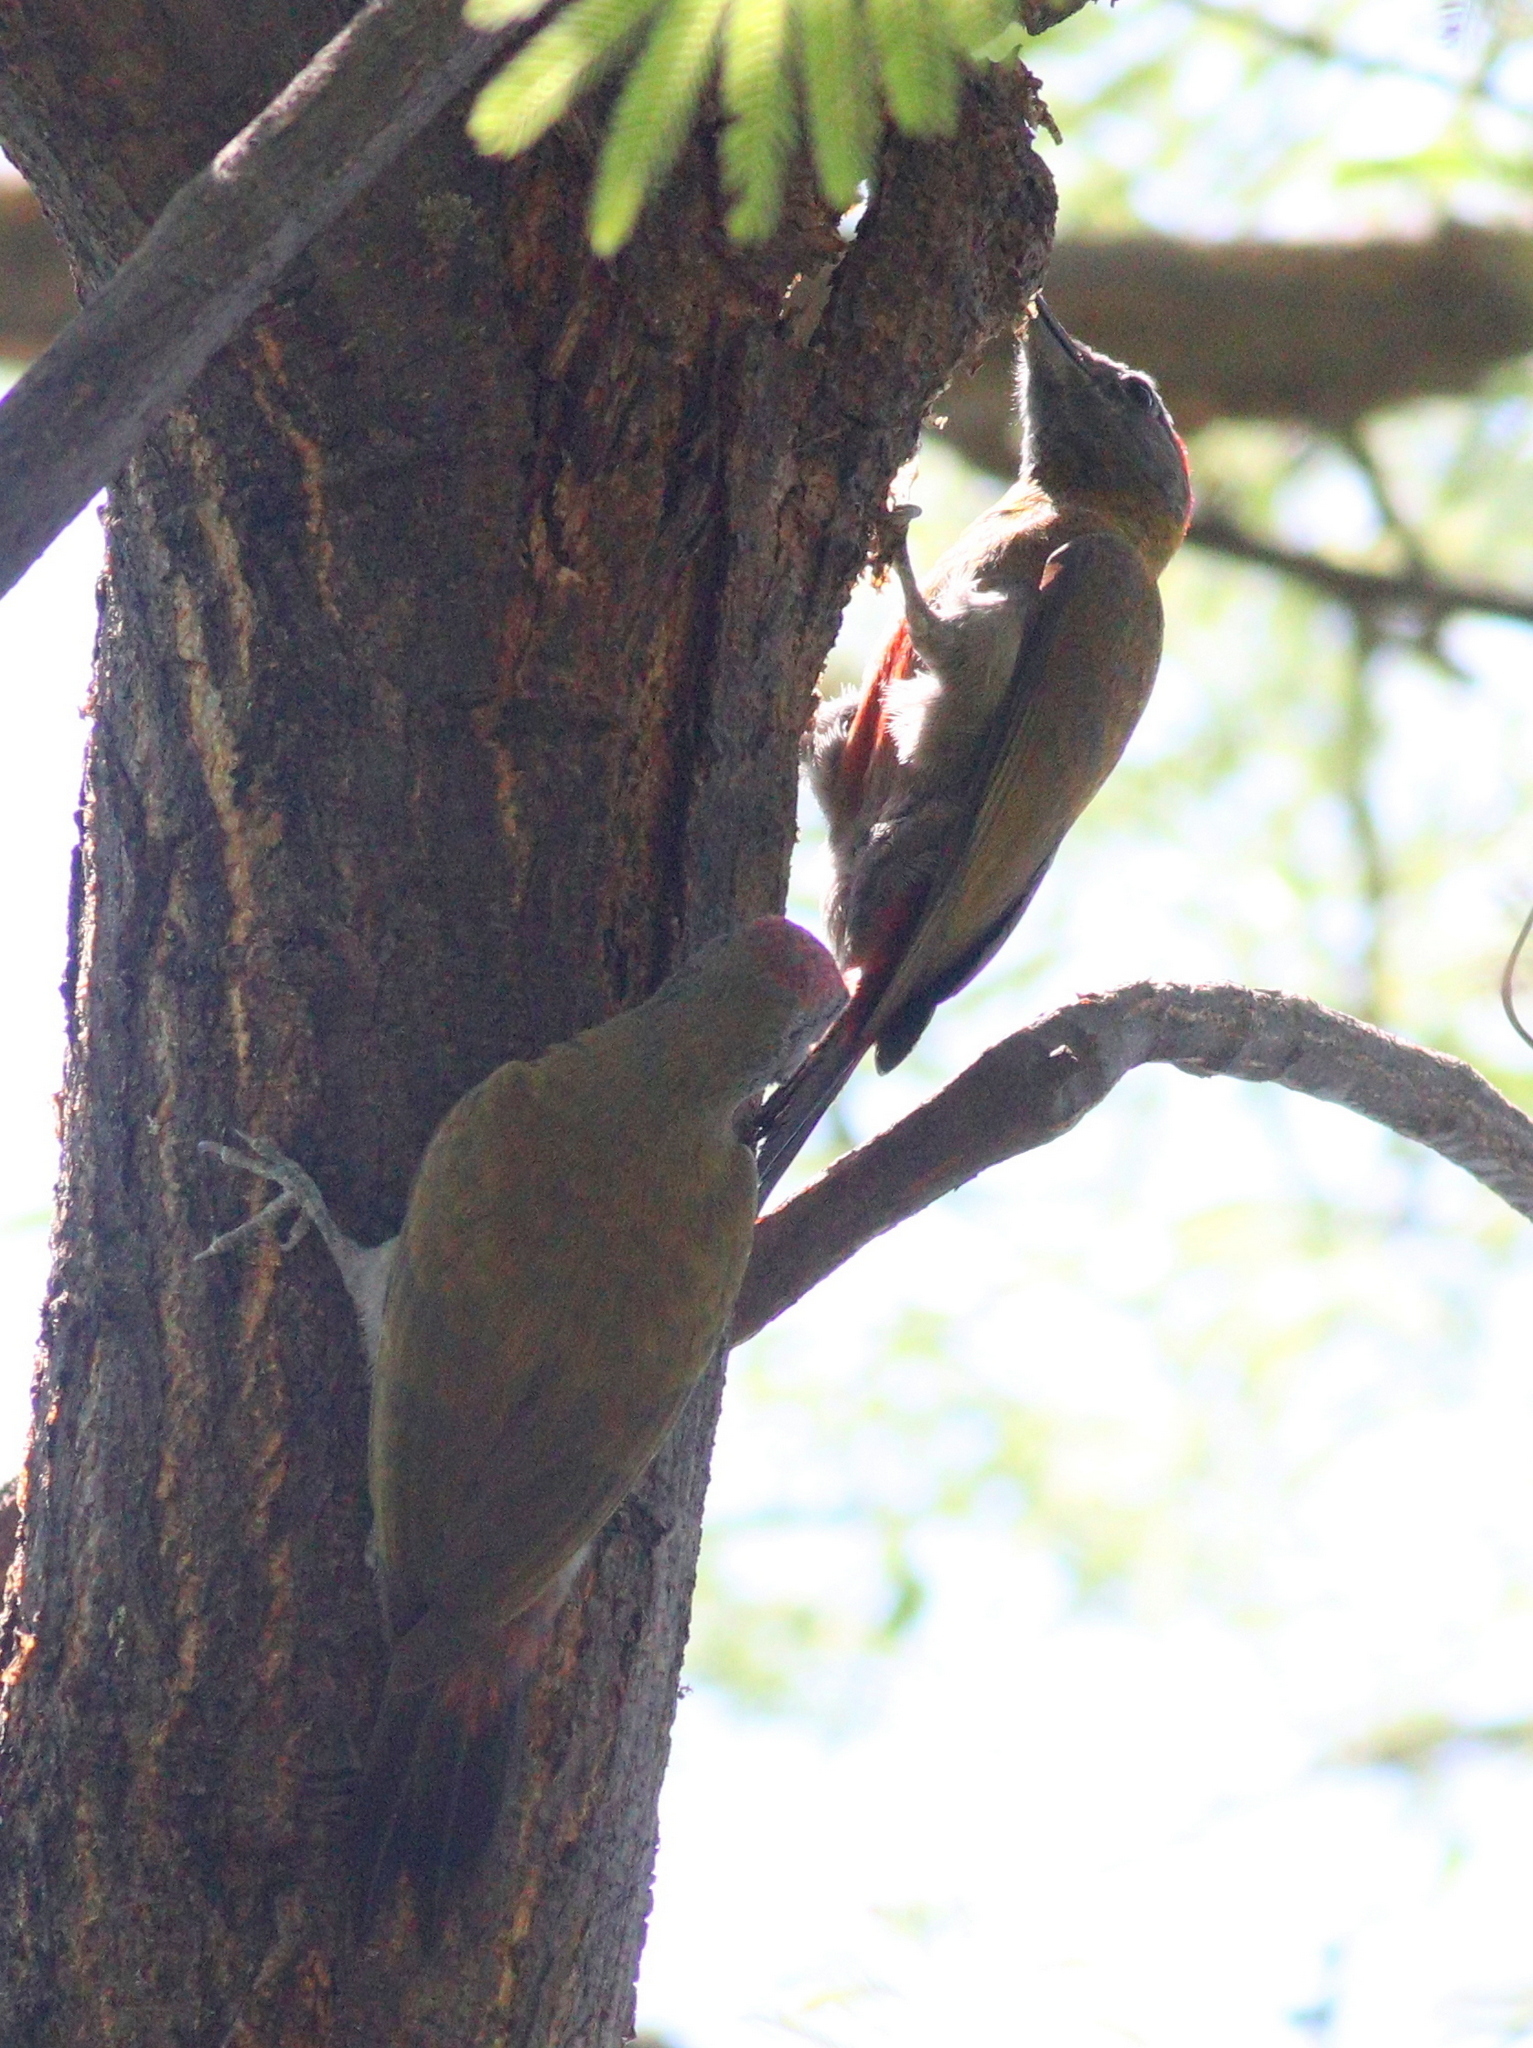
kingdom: Animalia
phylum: Chordata
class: Aves
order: Piciformes
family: Picidae
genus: Dendropicos
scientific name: Dendropicos griseocephalus
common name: Olive woodpecker
